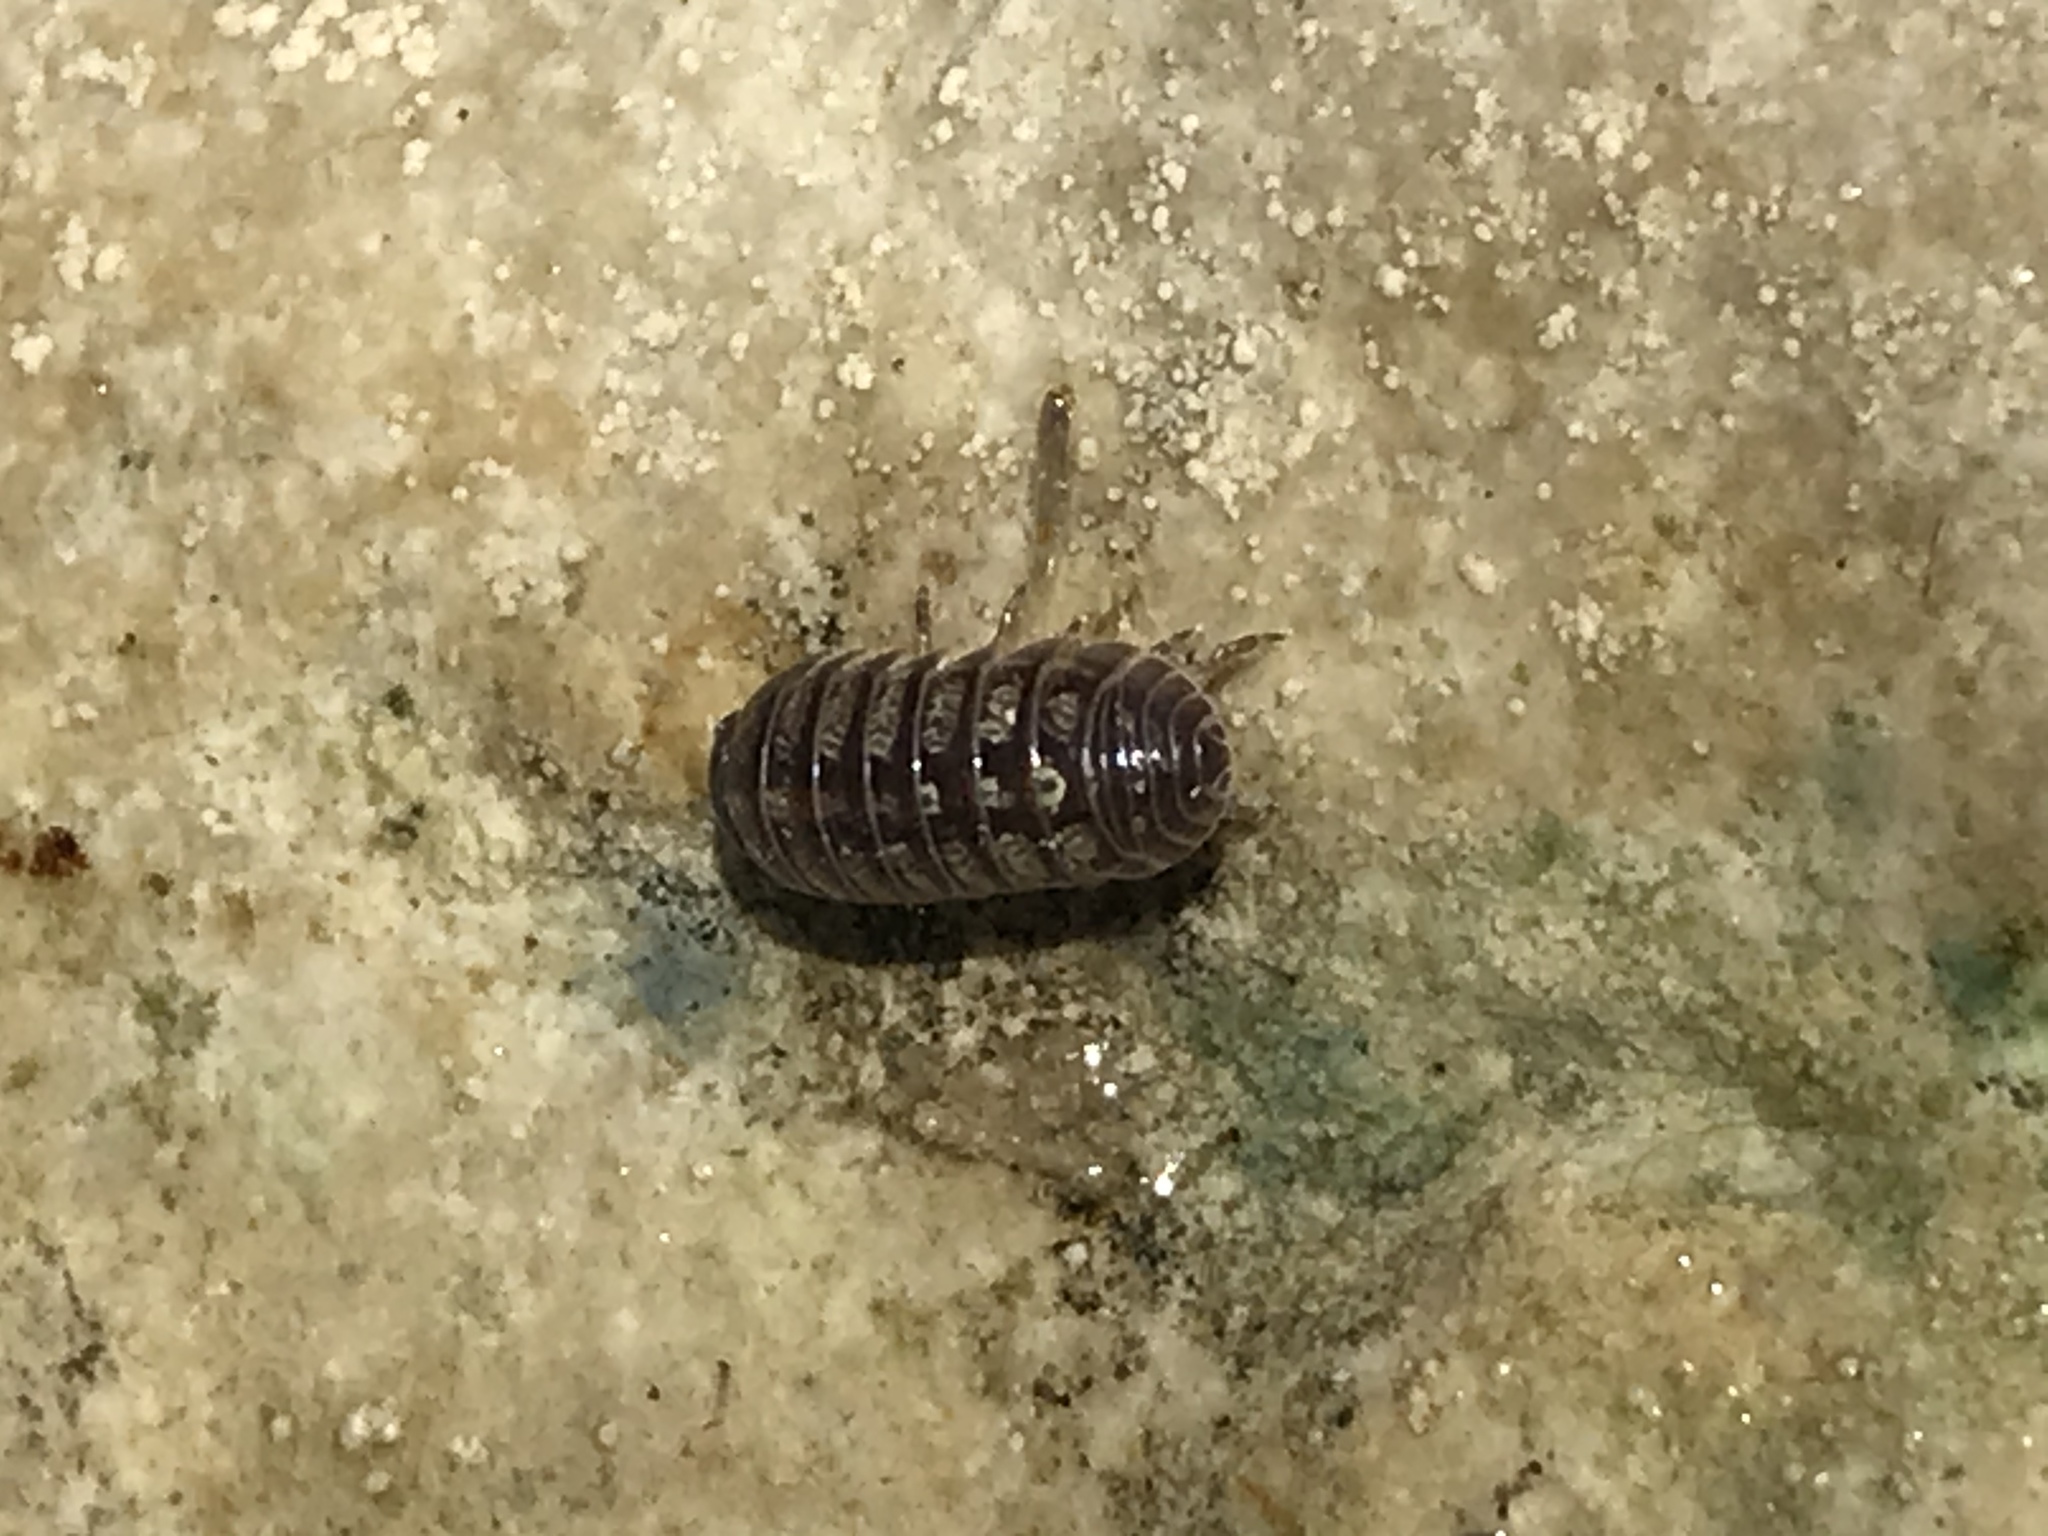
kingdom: Animalia
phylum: Arthropoda
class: Malacostraca
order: Isopoda
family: Armadillidiidae
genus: Armadillidium
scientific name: Armadillidium vulgare
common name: Common pill woodlouse
